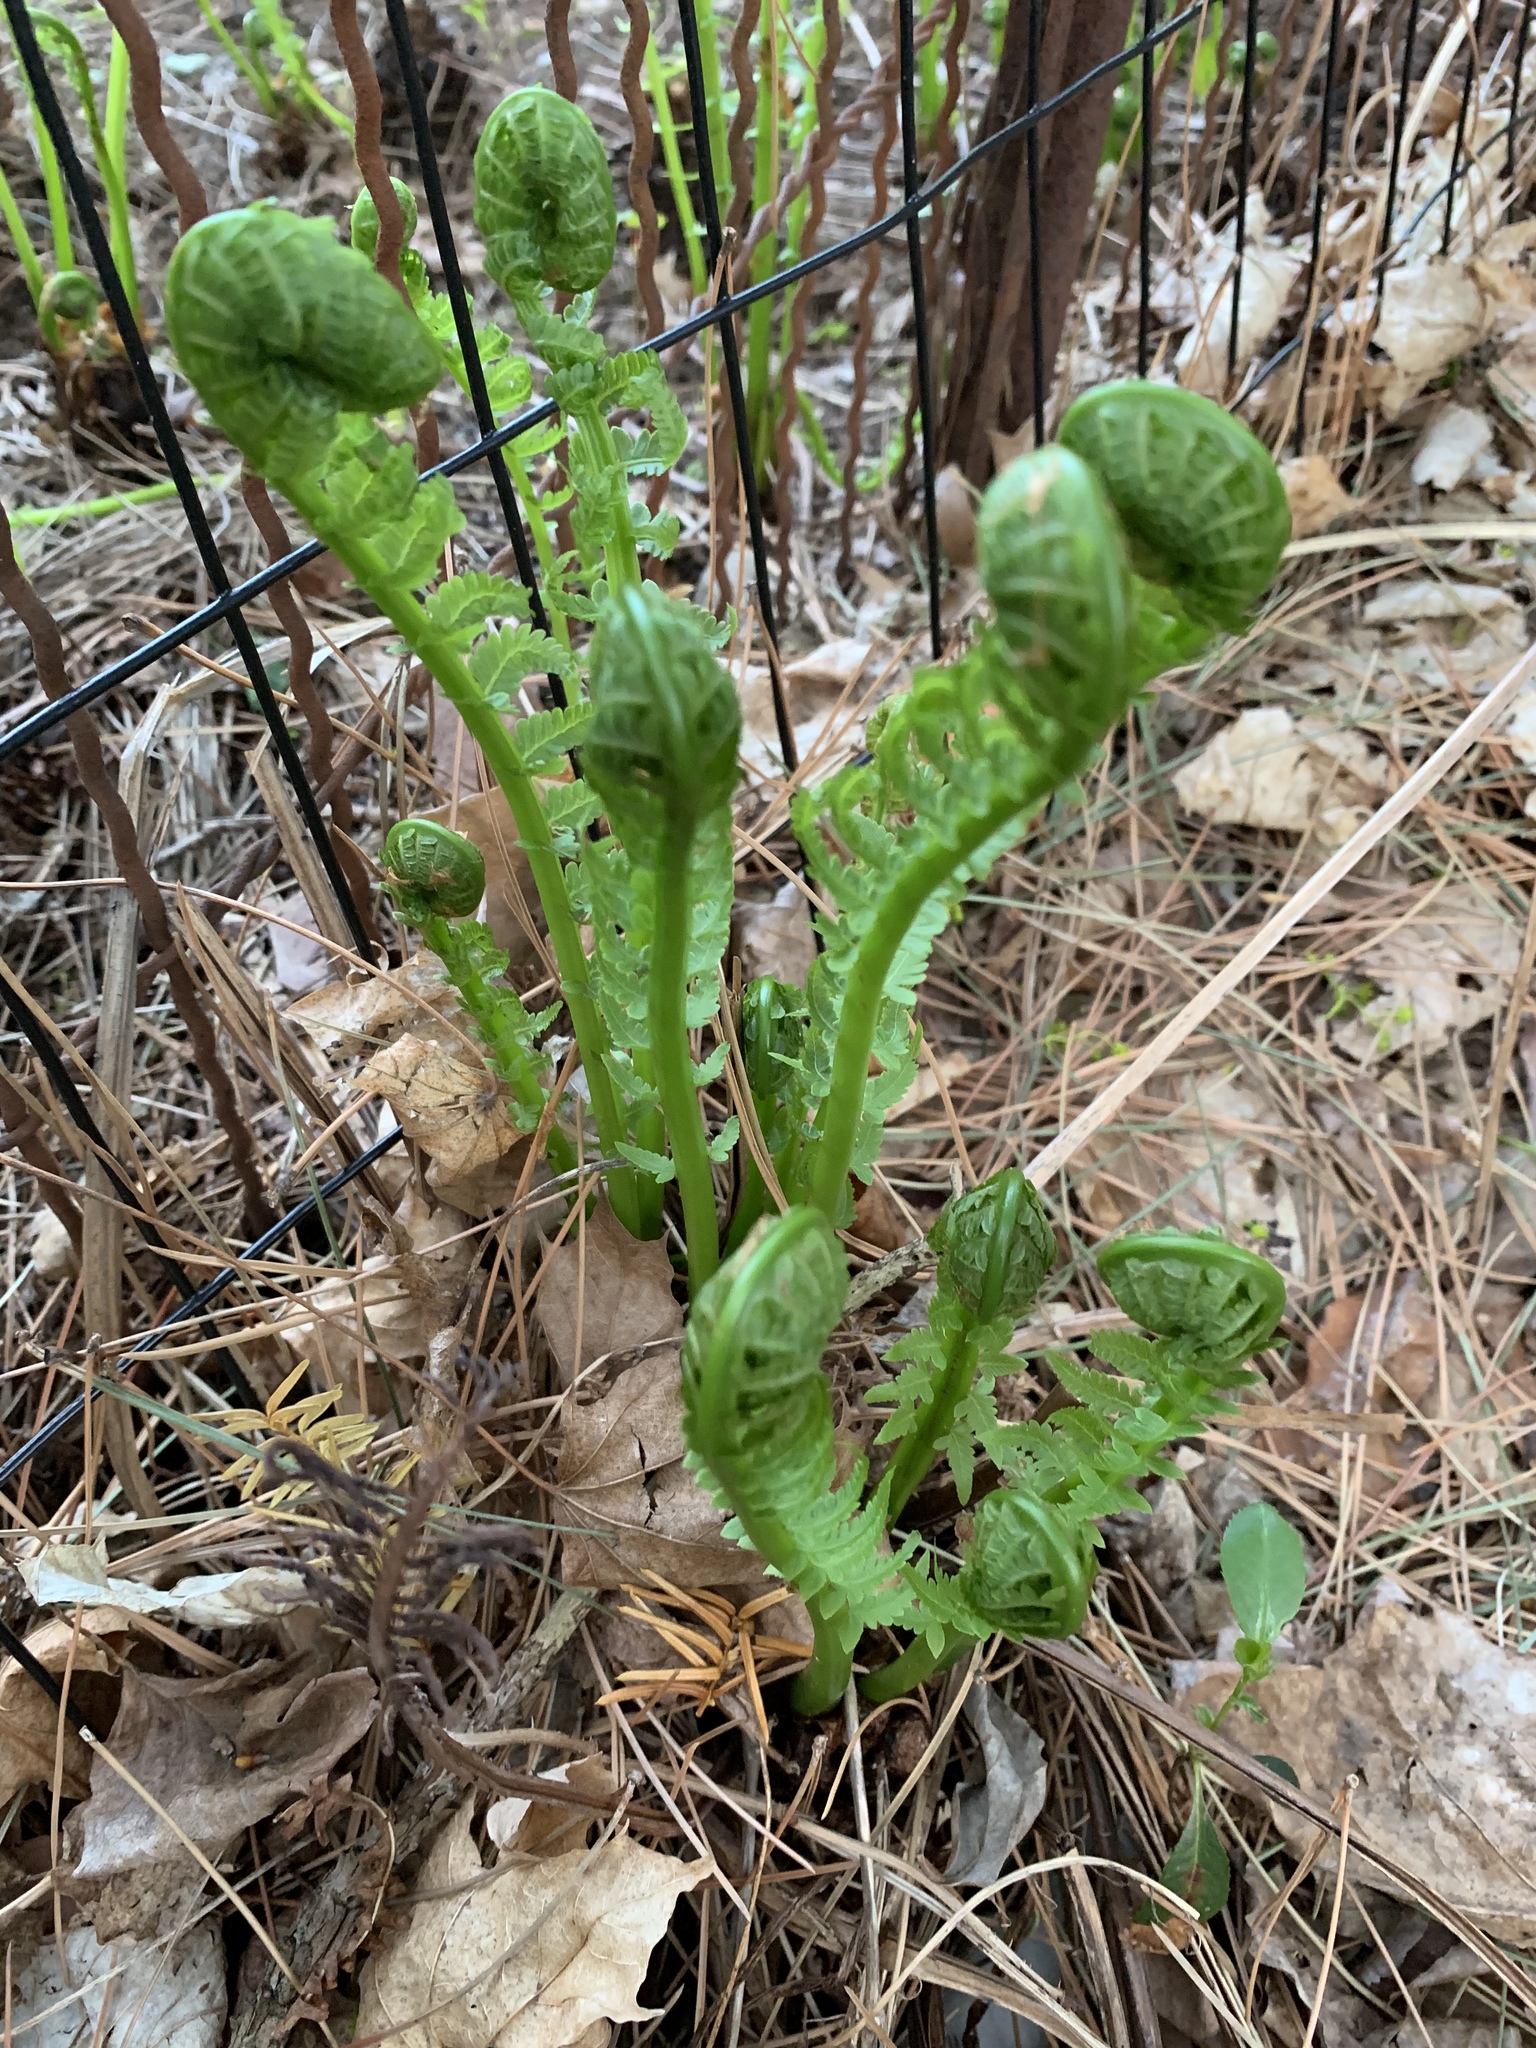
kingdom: Plantae
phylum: Tracheophyta
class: Polypodiopsida
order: Polypodiales
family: Onocleaceae
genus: Matteuccia
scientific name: Matteuccia struthiopteris
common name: Ostrich fern
